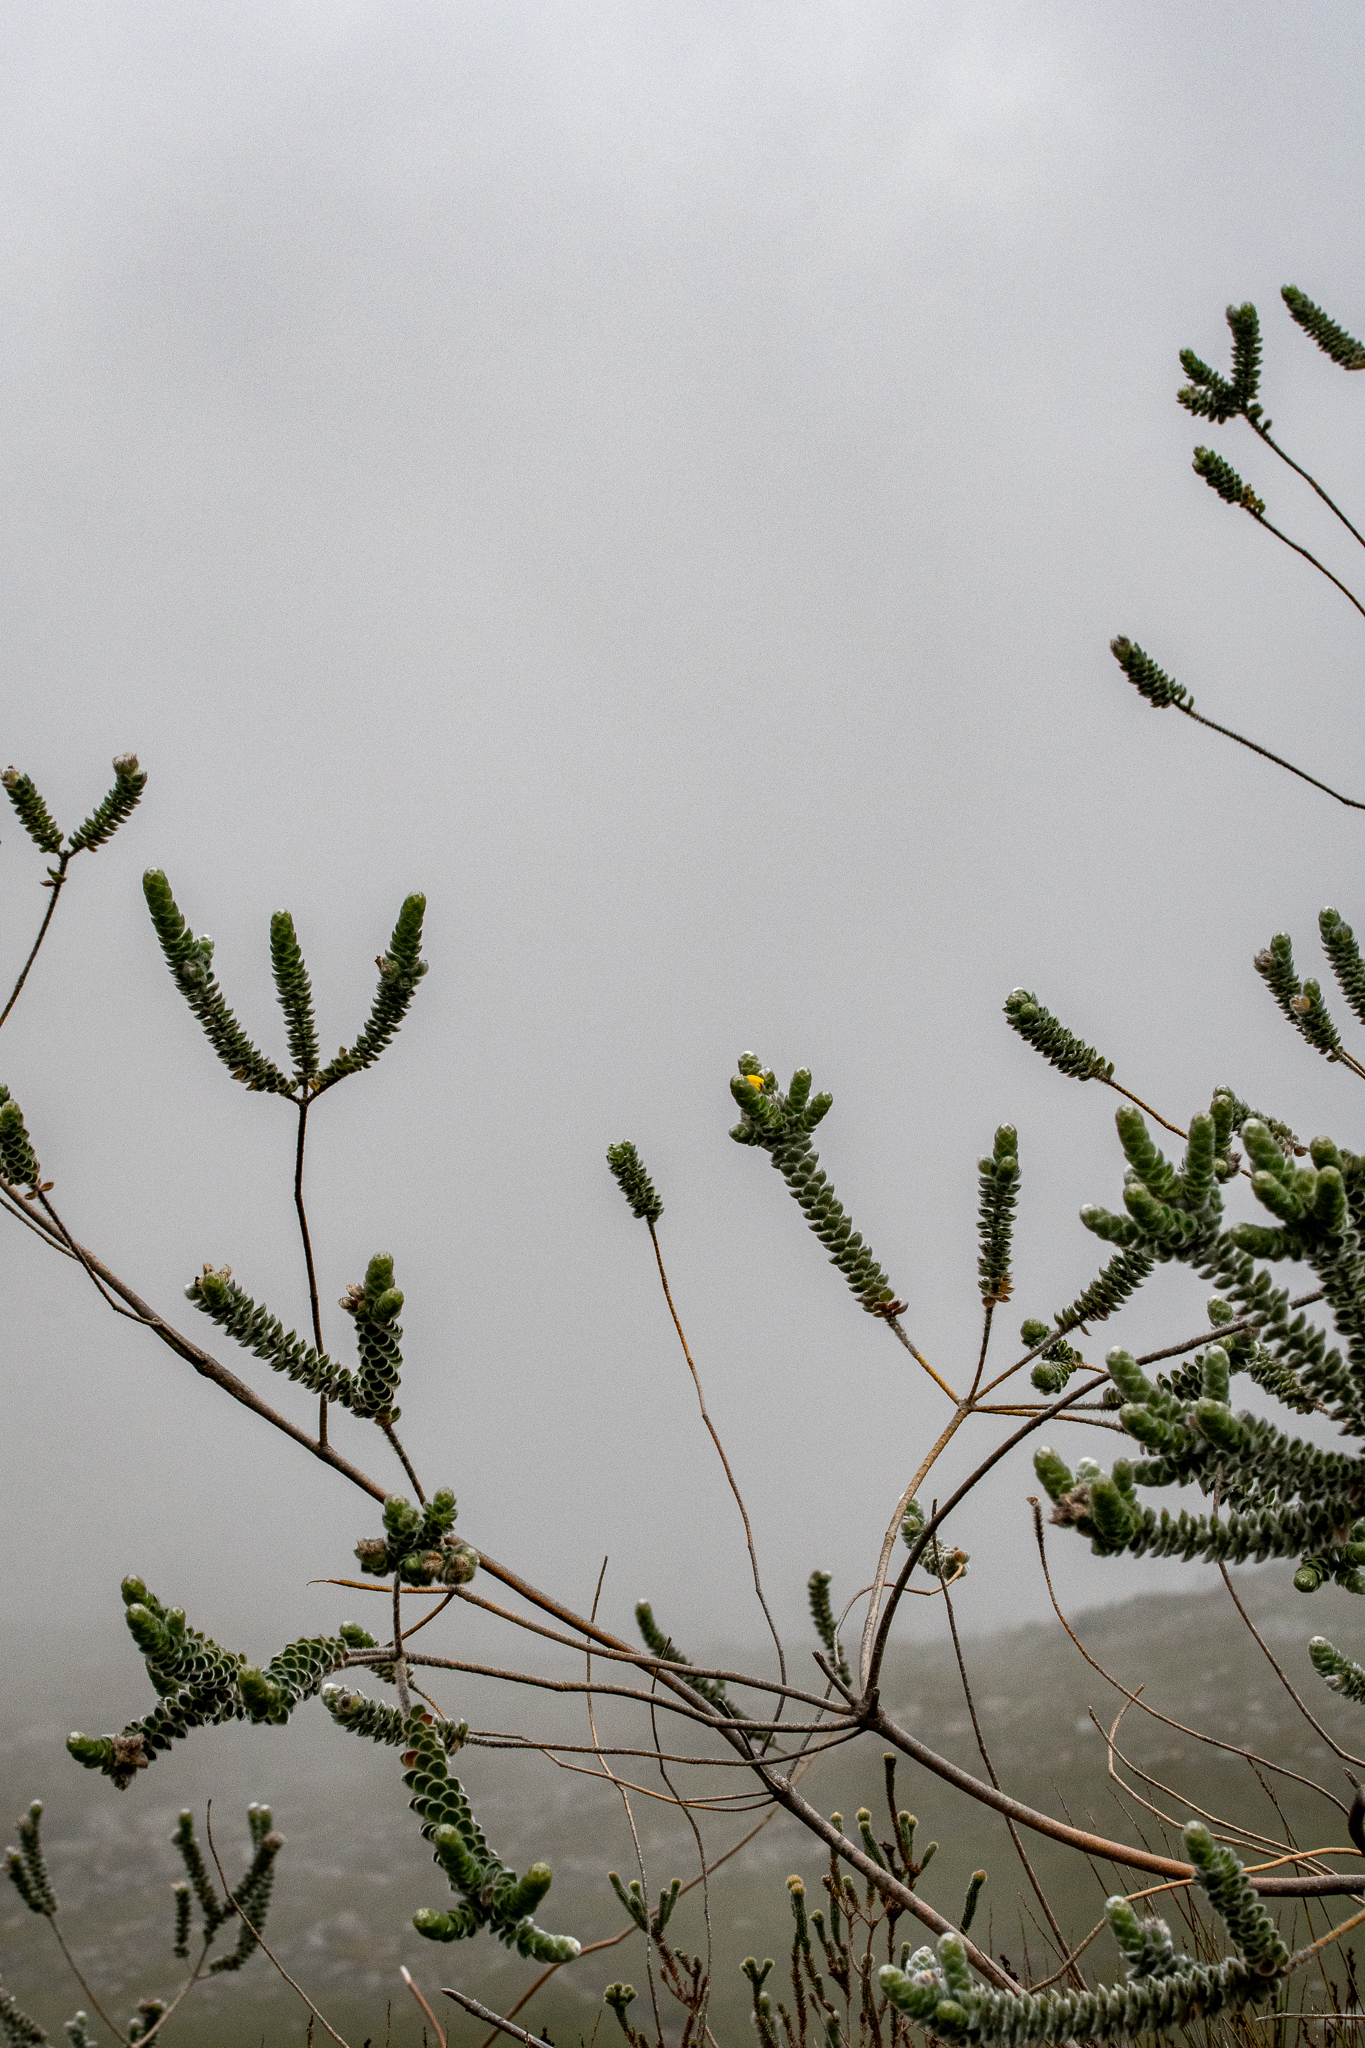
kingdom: Plantae
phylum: Tracheophyta
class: Magnoliopsida
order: Fabales
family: Fabaceae
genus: Liparia
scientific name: Liparia vestita
